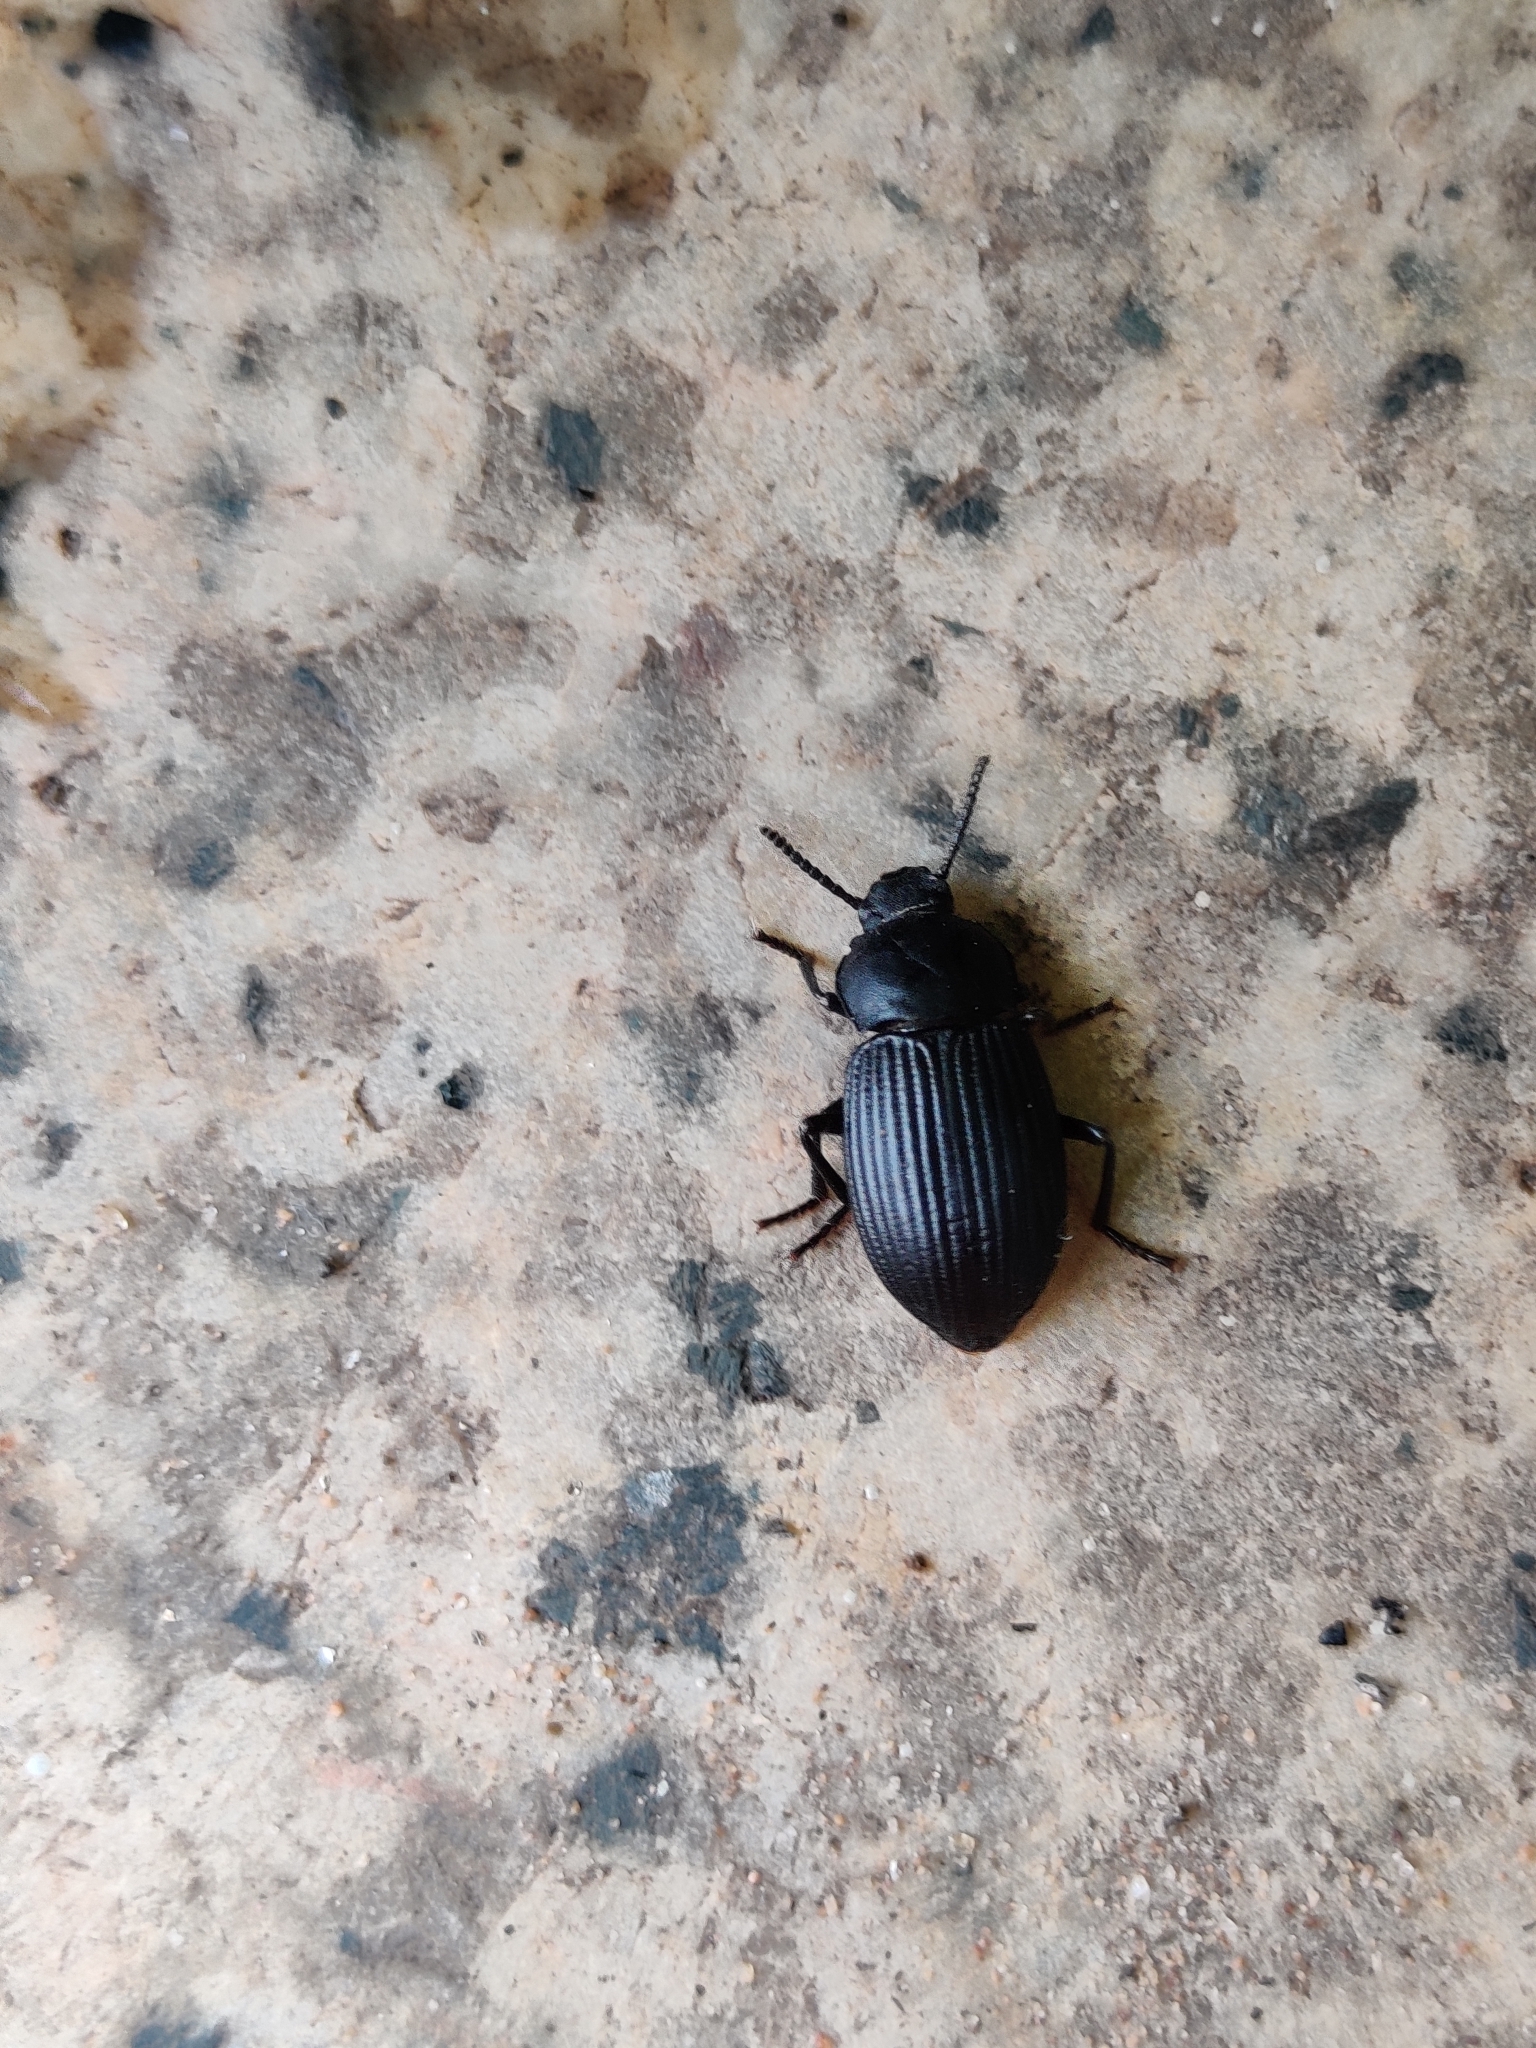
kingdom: Animalia
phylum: Arthropoda
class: Insecta
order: Coleoptera
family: Tenebrionidae
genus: Notocorax
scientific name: Notocorax
